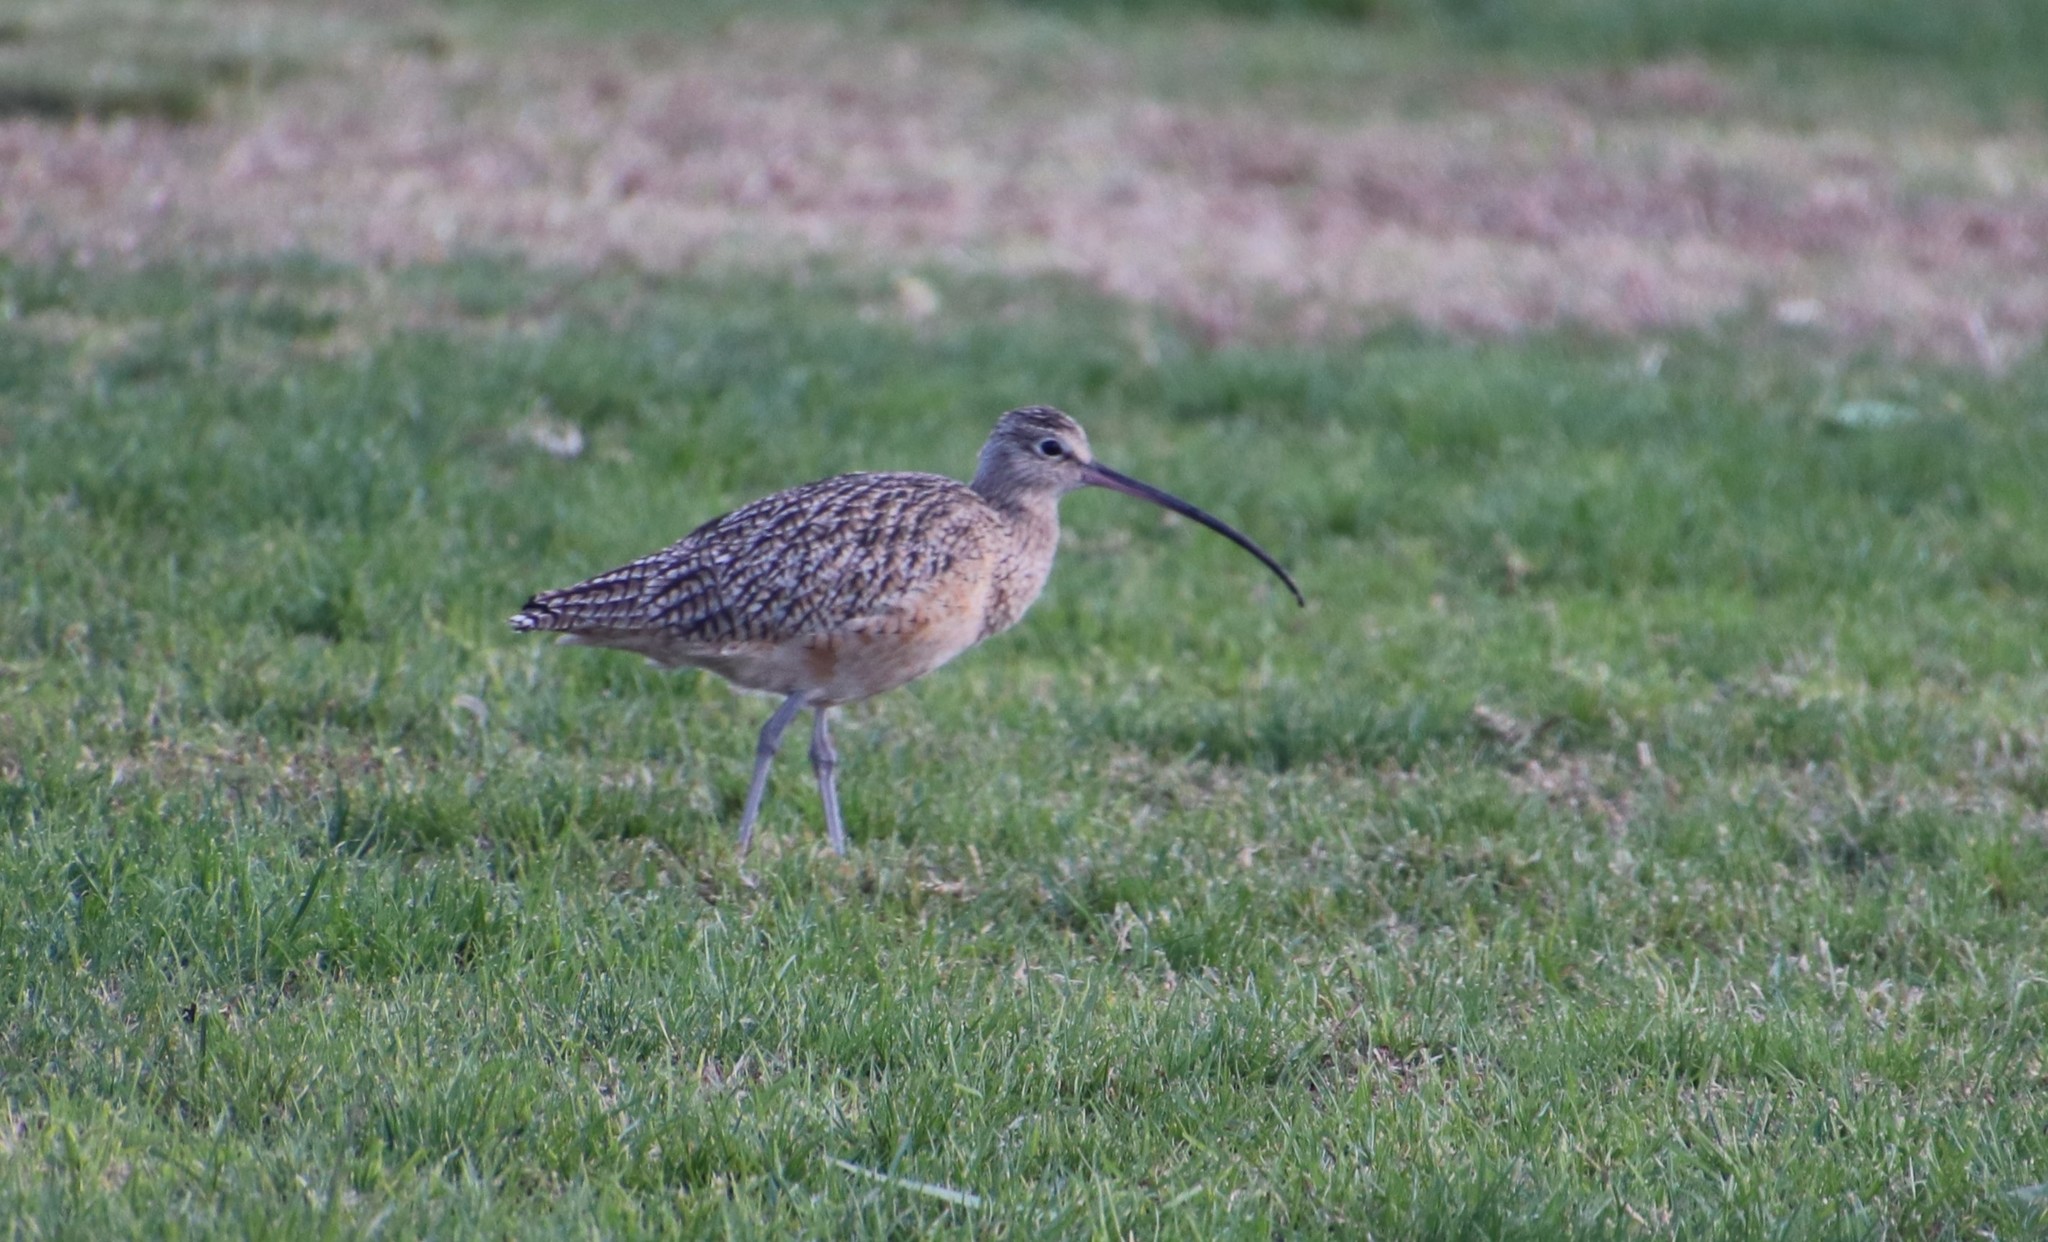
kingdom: Animalia
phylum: Chordata
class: Aves
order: Charadriiformes
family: Scolopacidae
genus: Numenius
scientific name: Numenius americanus
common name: Long-billed curlew
